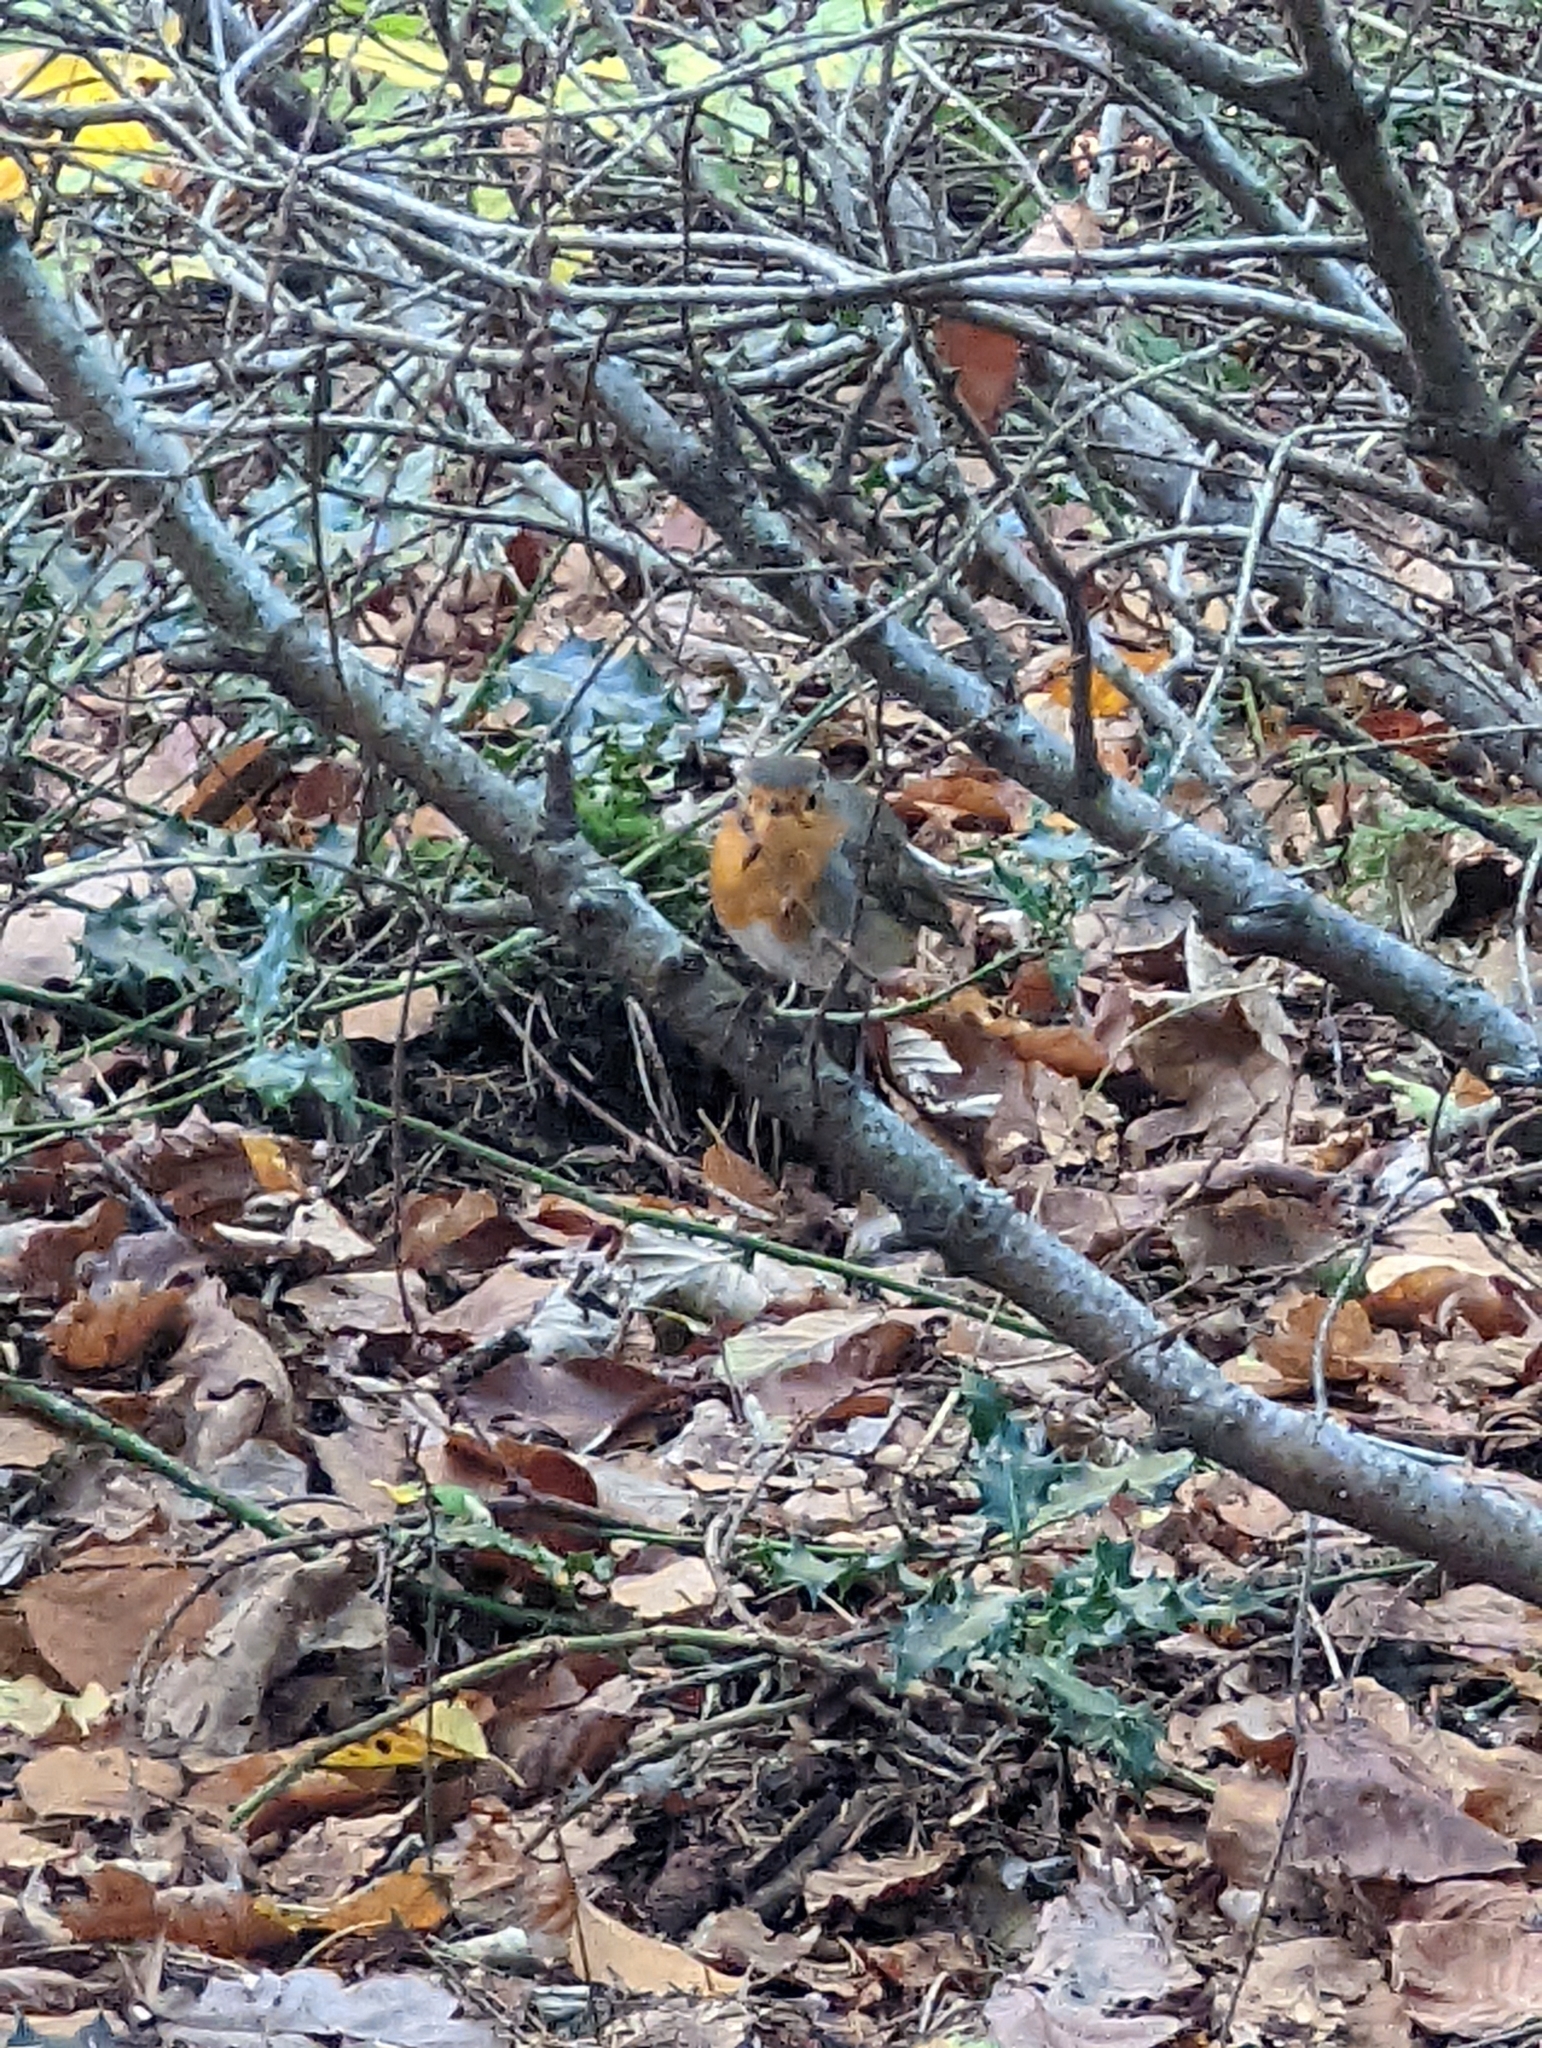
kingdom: Animalia
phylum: Chordata
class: Aves
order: Passeriformes
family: Muscicapidae
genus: Erithacus
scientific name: Erithacus rubecula
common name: European robin
